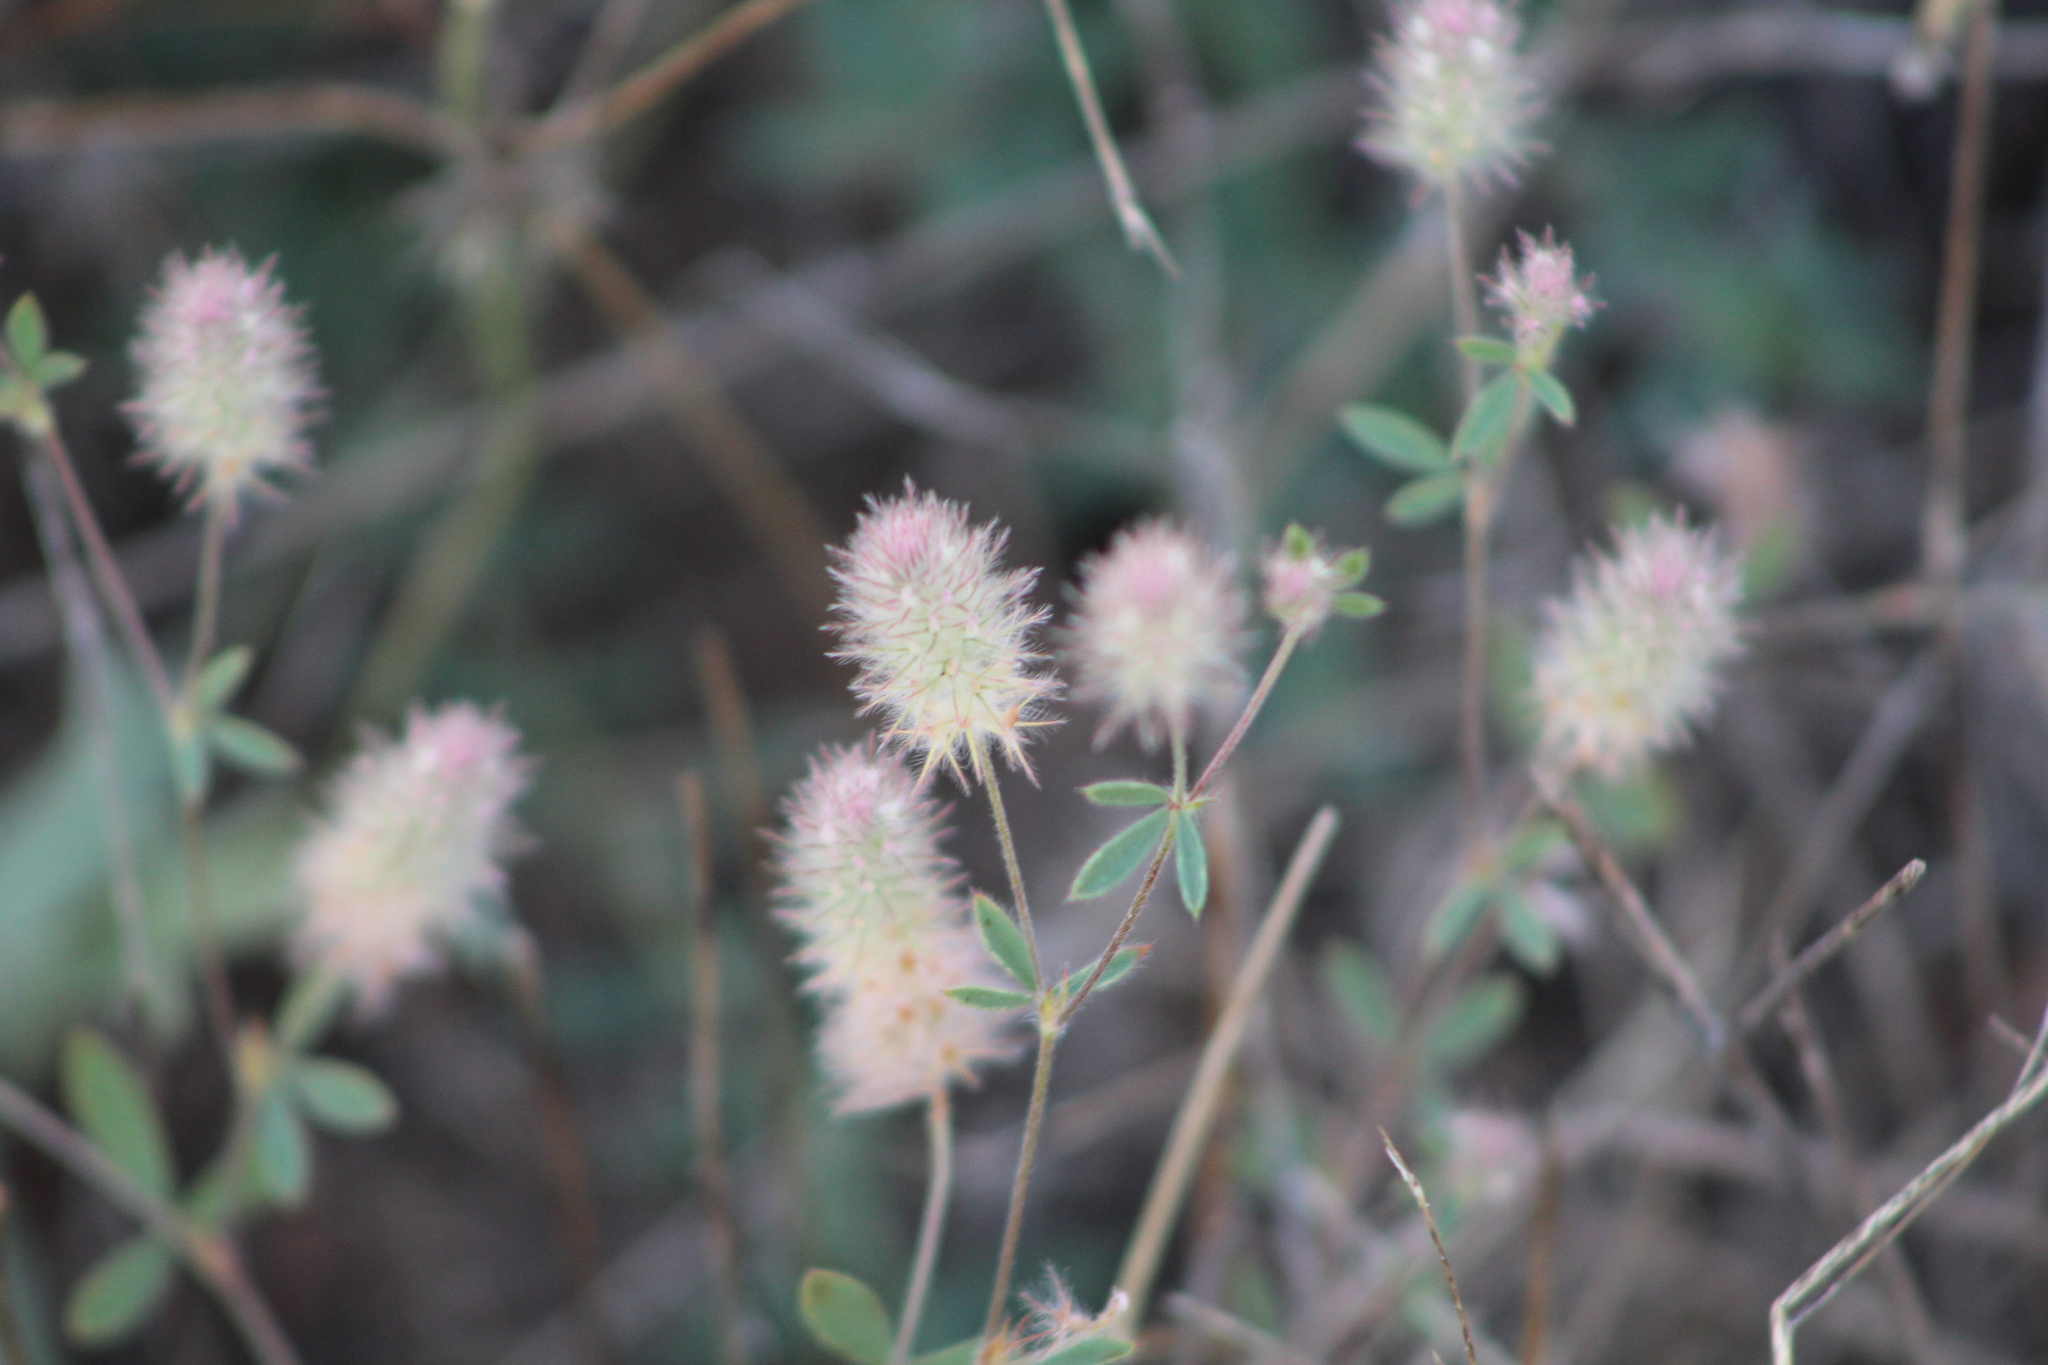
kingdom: Plantae
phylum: Tracheophyta
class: Magnoliopsida
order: Fabales
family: Fabaceae
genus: Trifolium
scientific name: Trifolium arvense
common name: Hare's-foot clover
